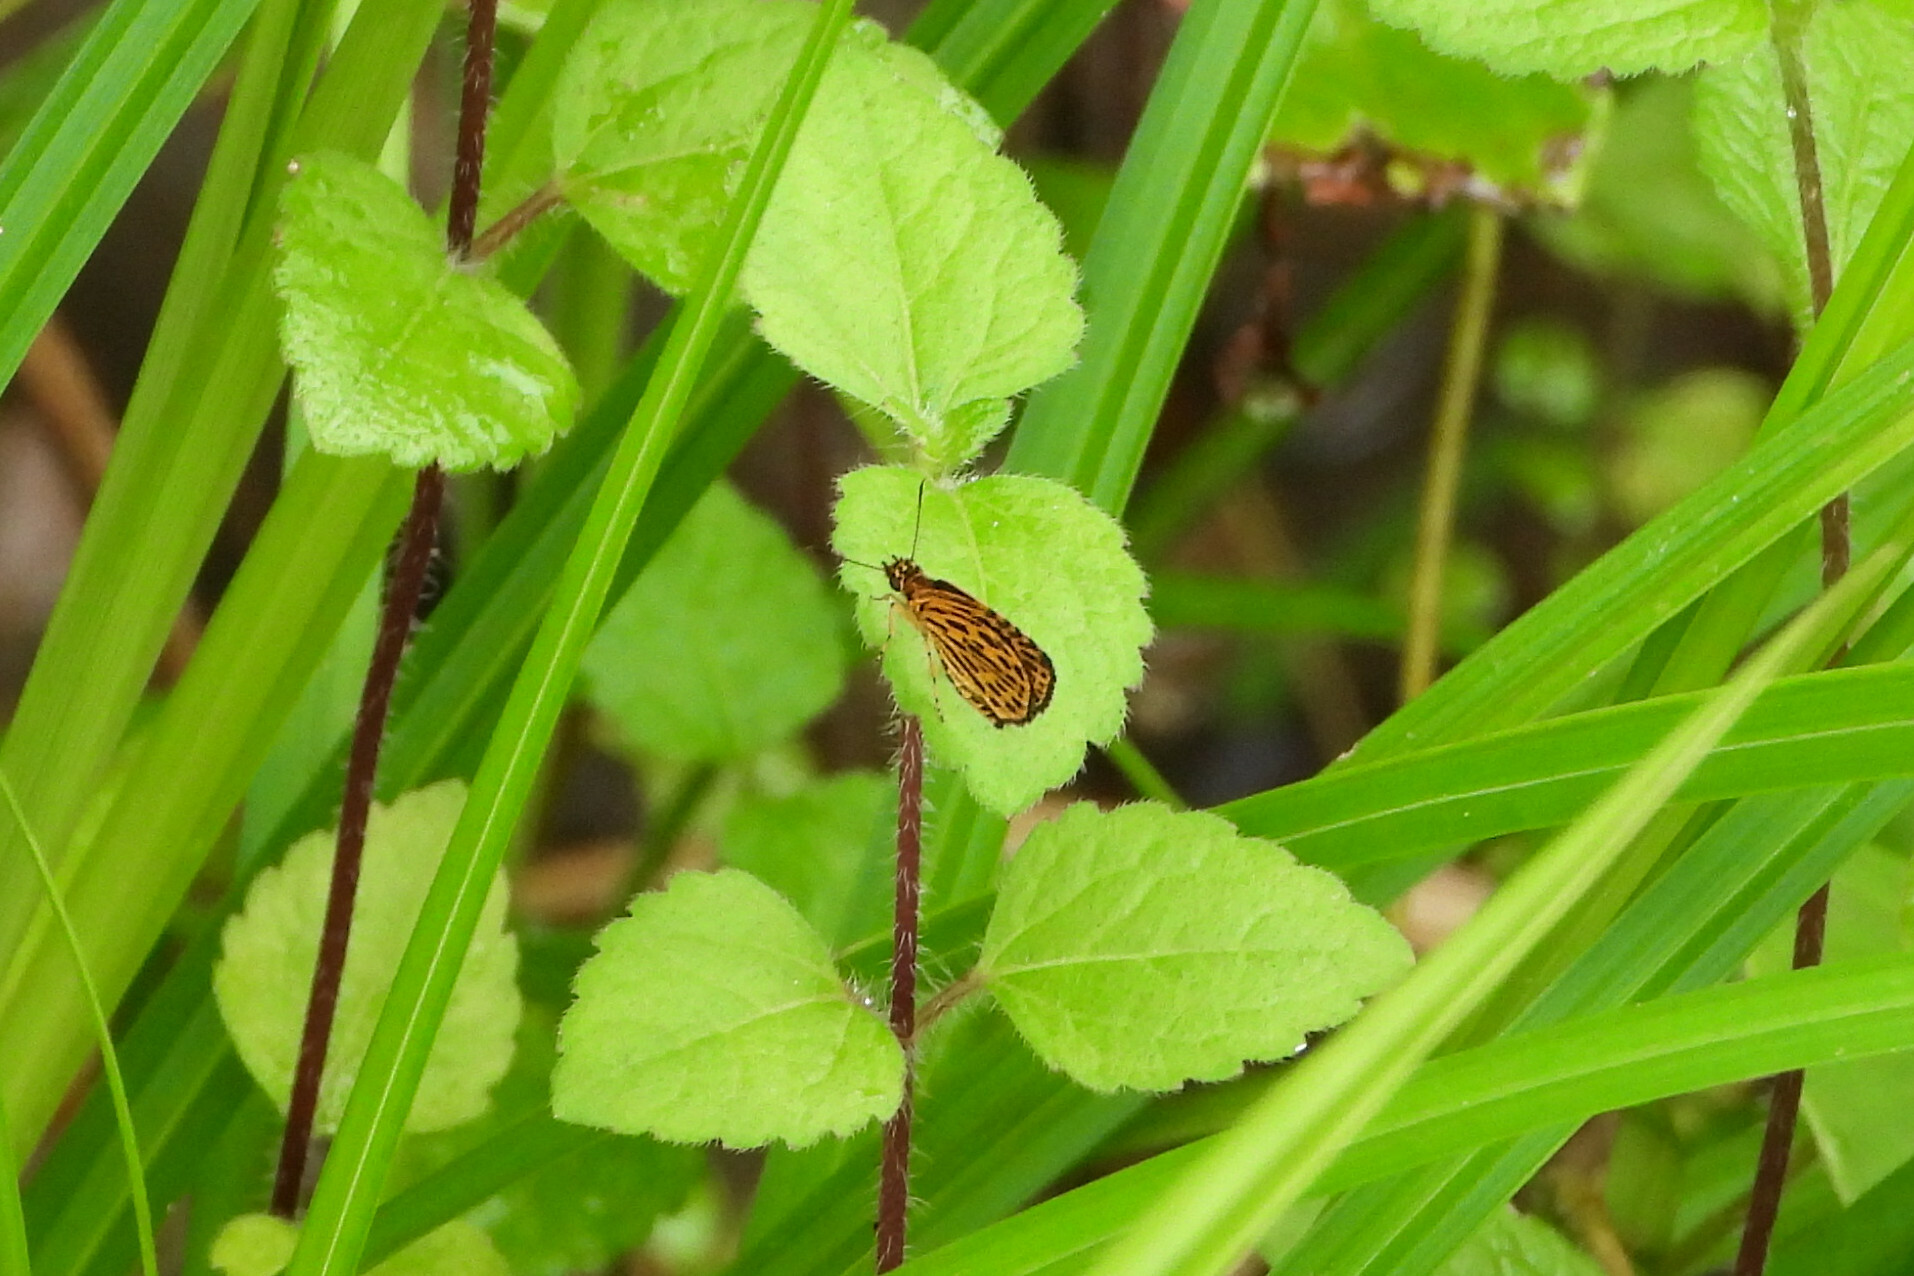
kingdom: Animalia
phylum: Arthropoda
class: Insecta
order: Lepidoptera
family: Hesperiidae
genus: Ampittia
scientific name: Ampittia subvittatus
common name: Tiger hopper
